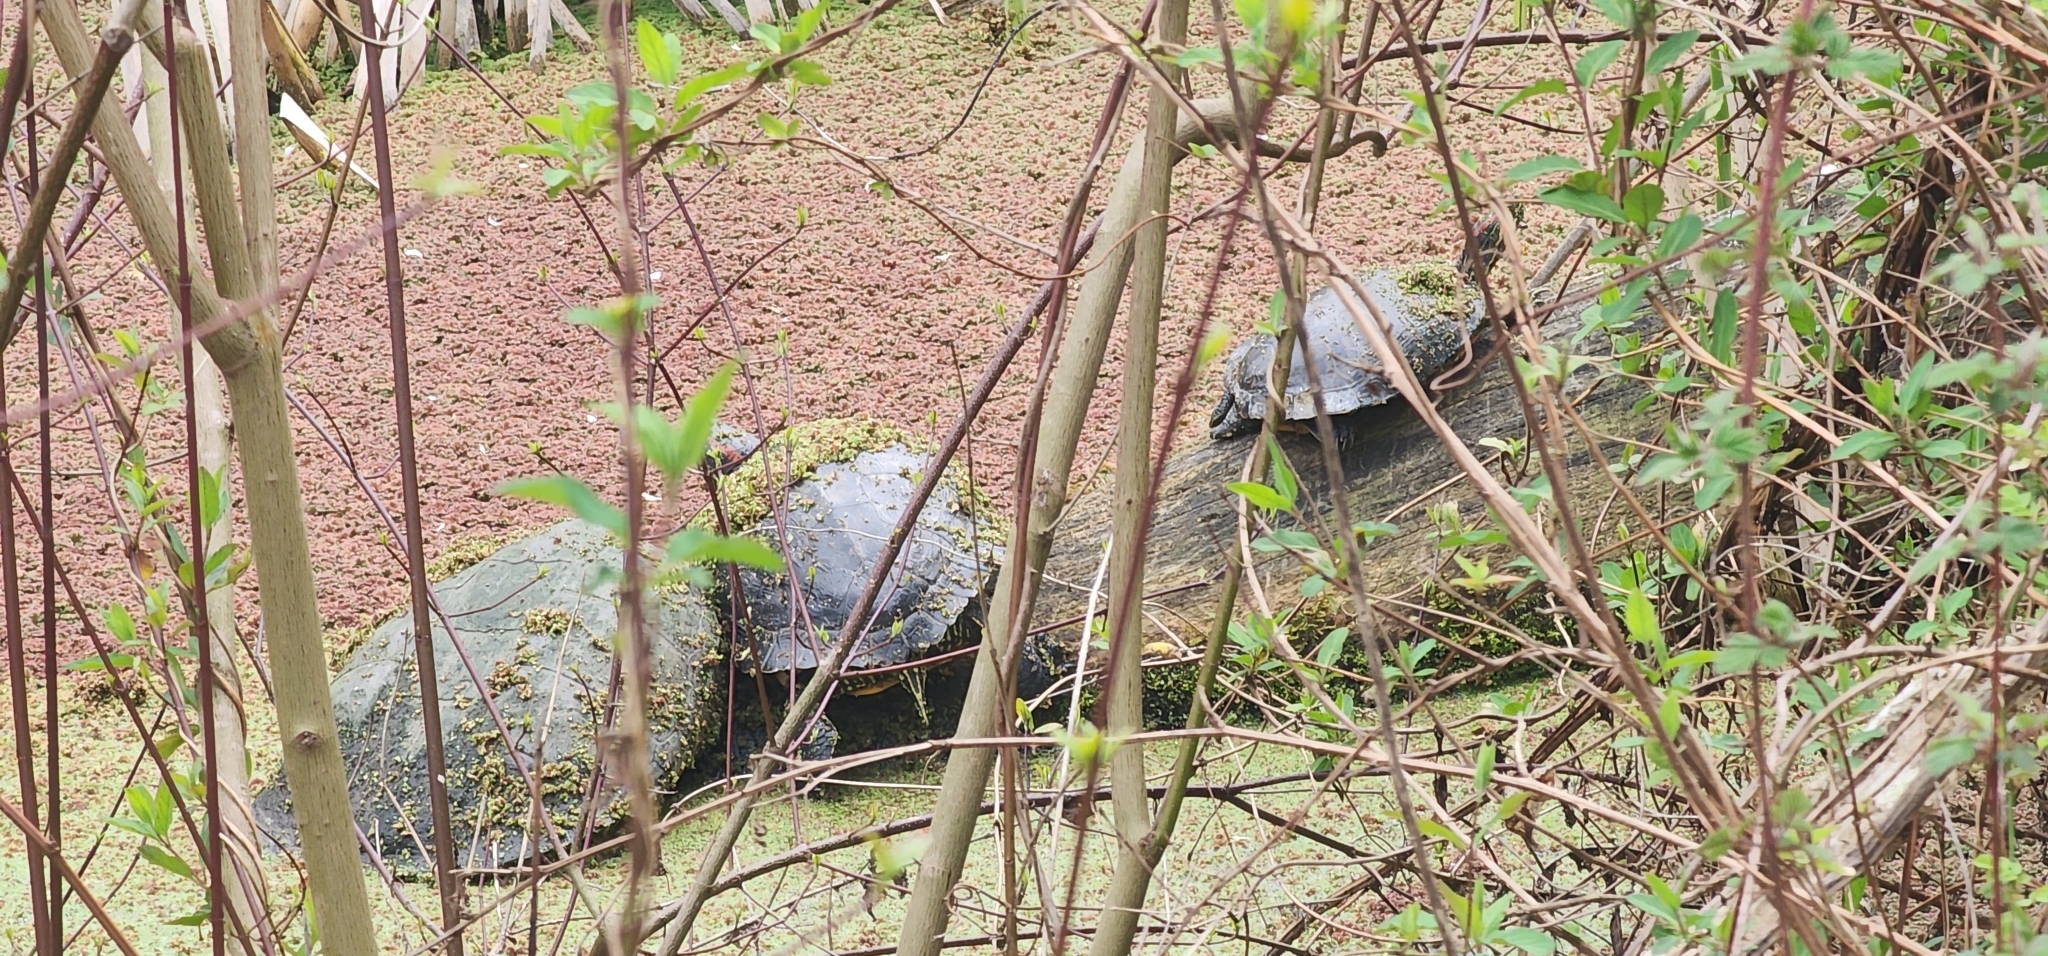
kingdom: Animalia
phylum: Chordata
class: Testudines
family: Chelydridae
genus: Chelydra
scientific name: Chelydra serpentina
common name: Common snapping turtle
